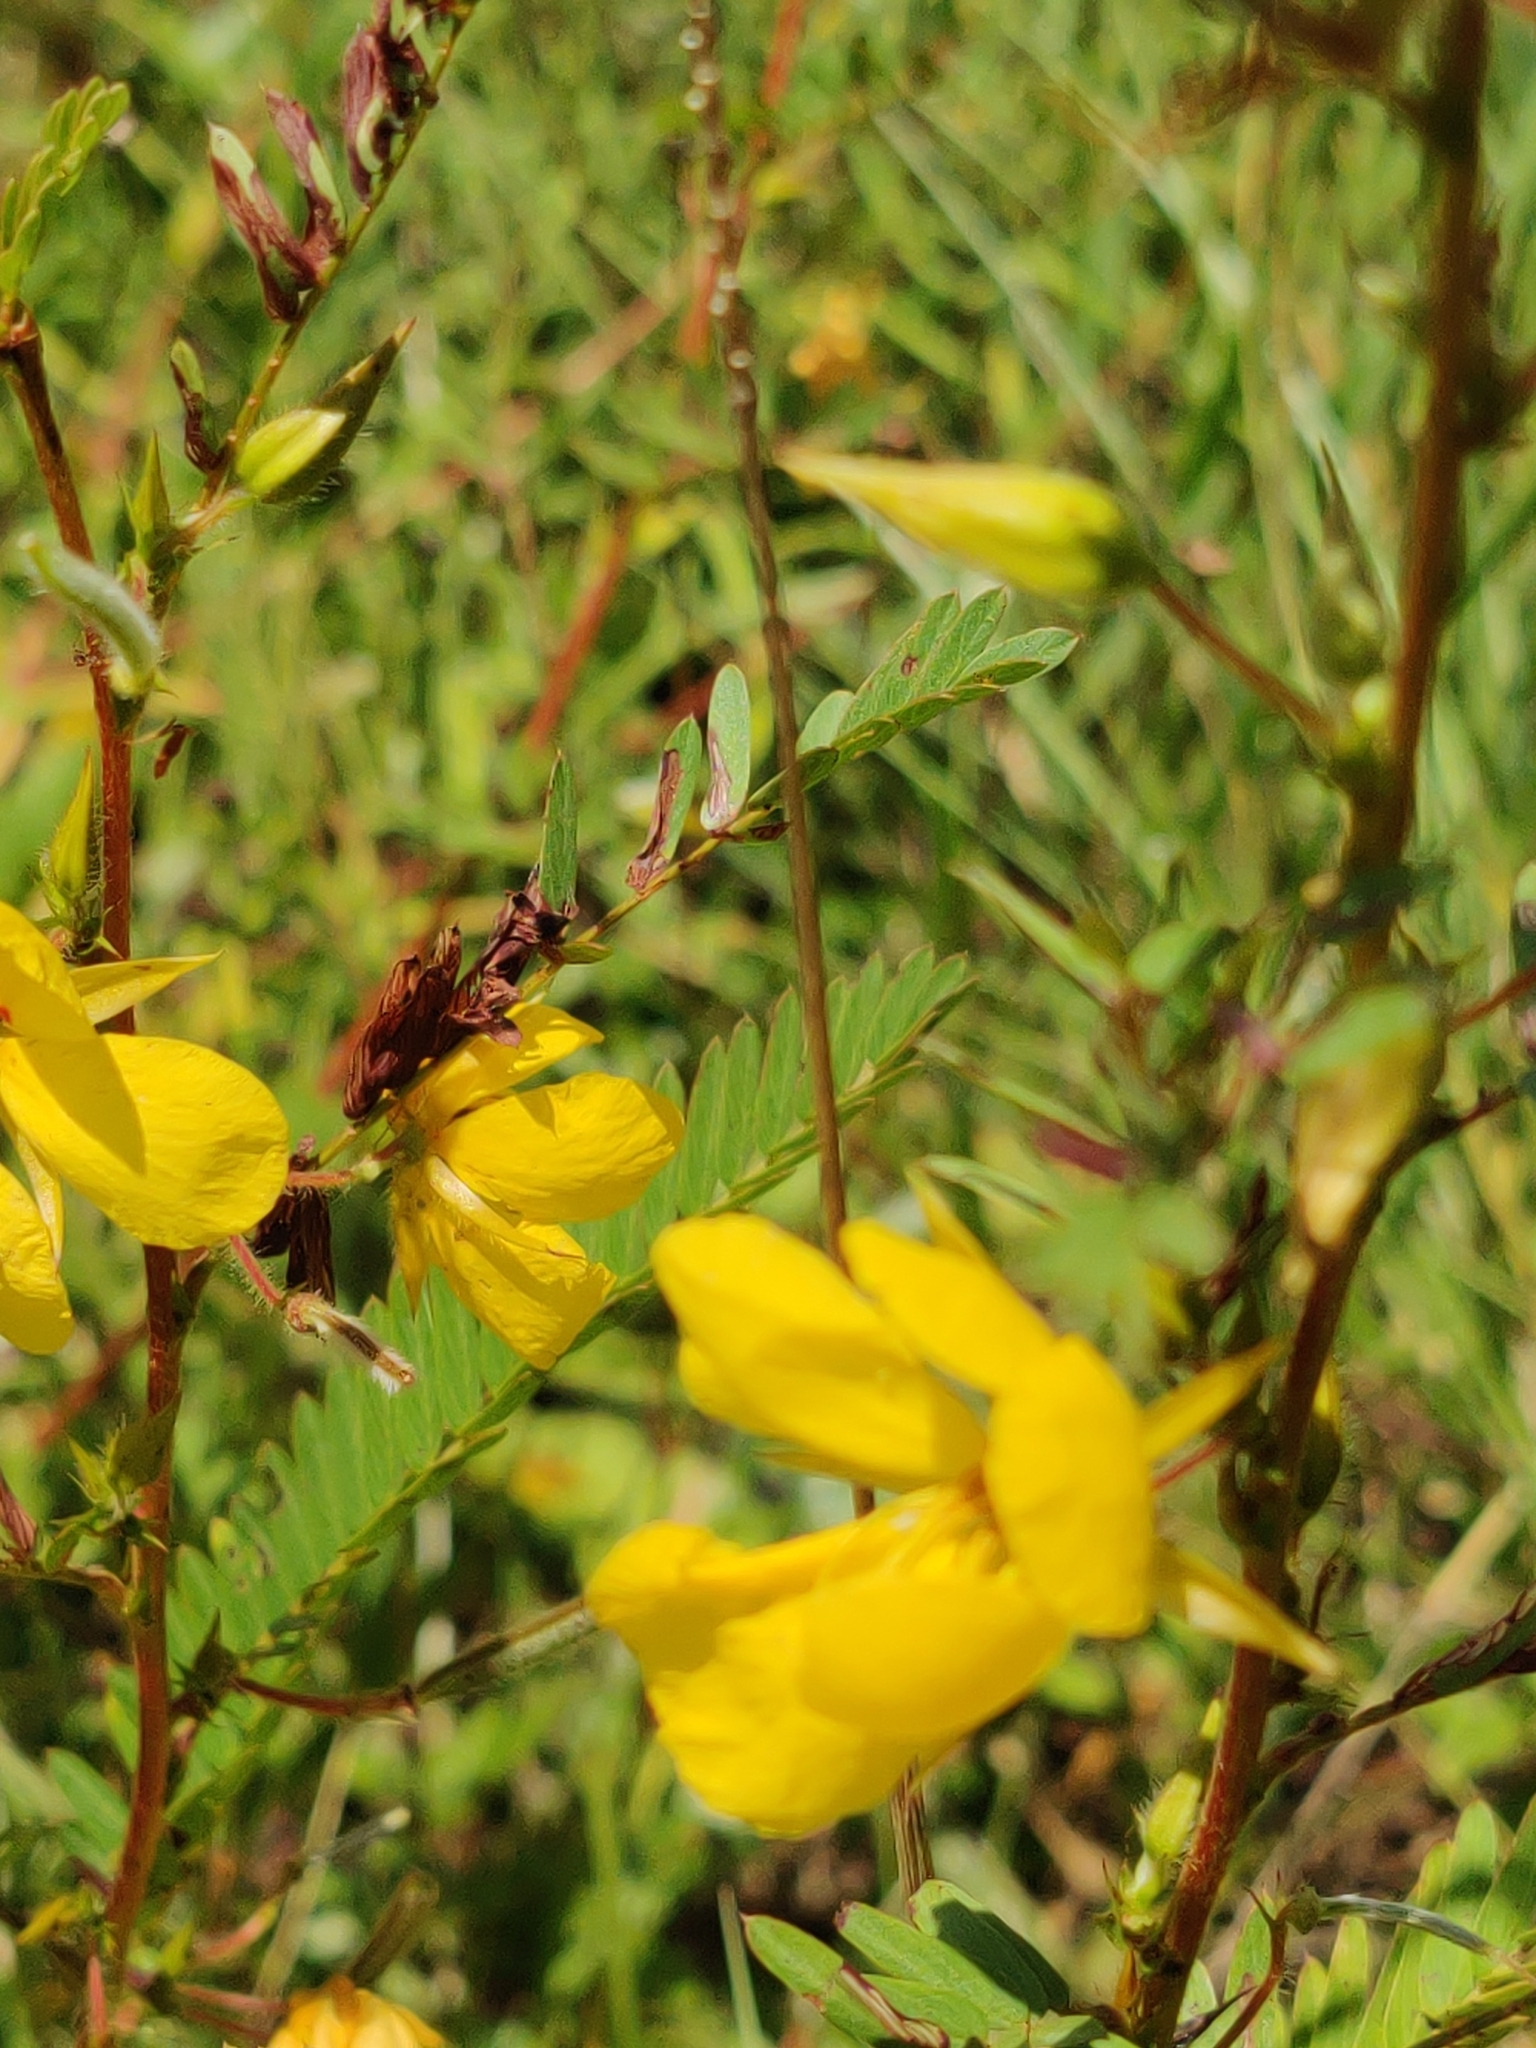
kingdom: Plantae
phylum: Tracheophyta
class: Magnoliopsida
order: Fabales
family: Fabaceae
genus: Chamaecrista
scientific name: Chamaecrista fasciculata
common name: Golden cassia
